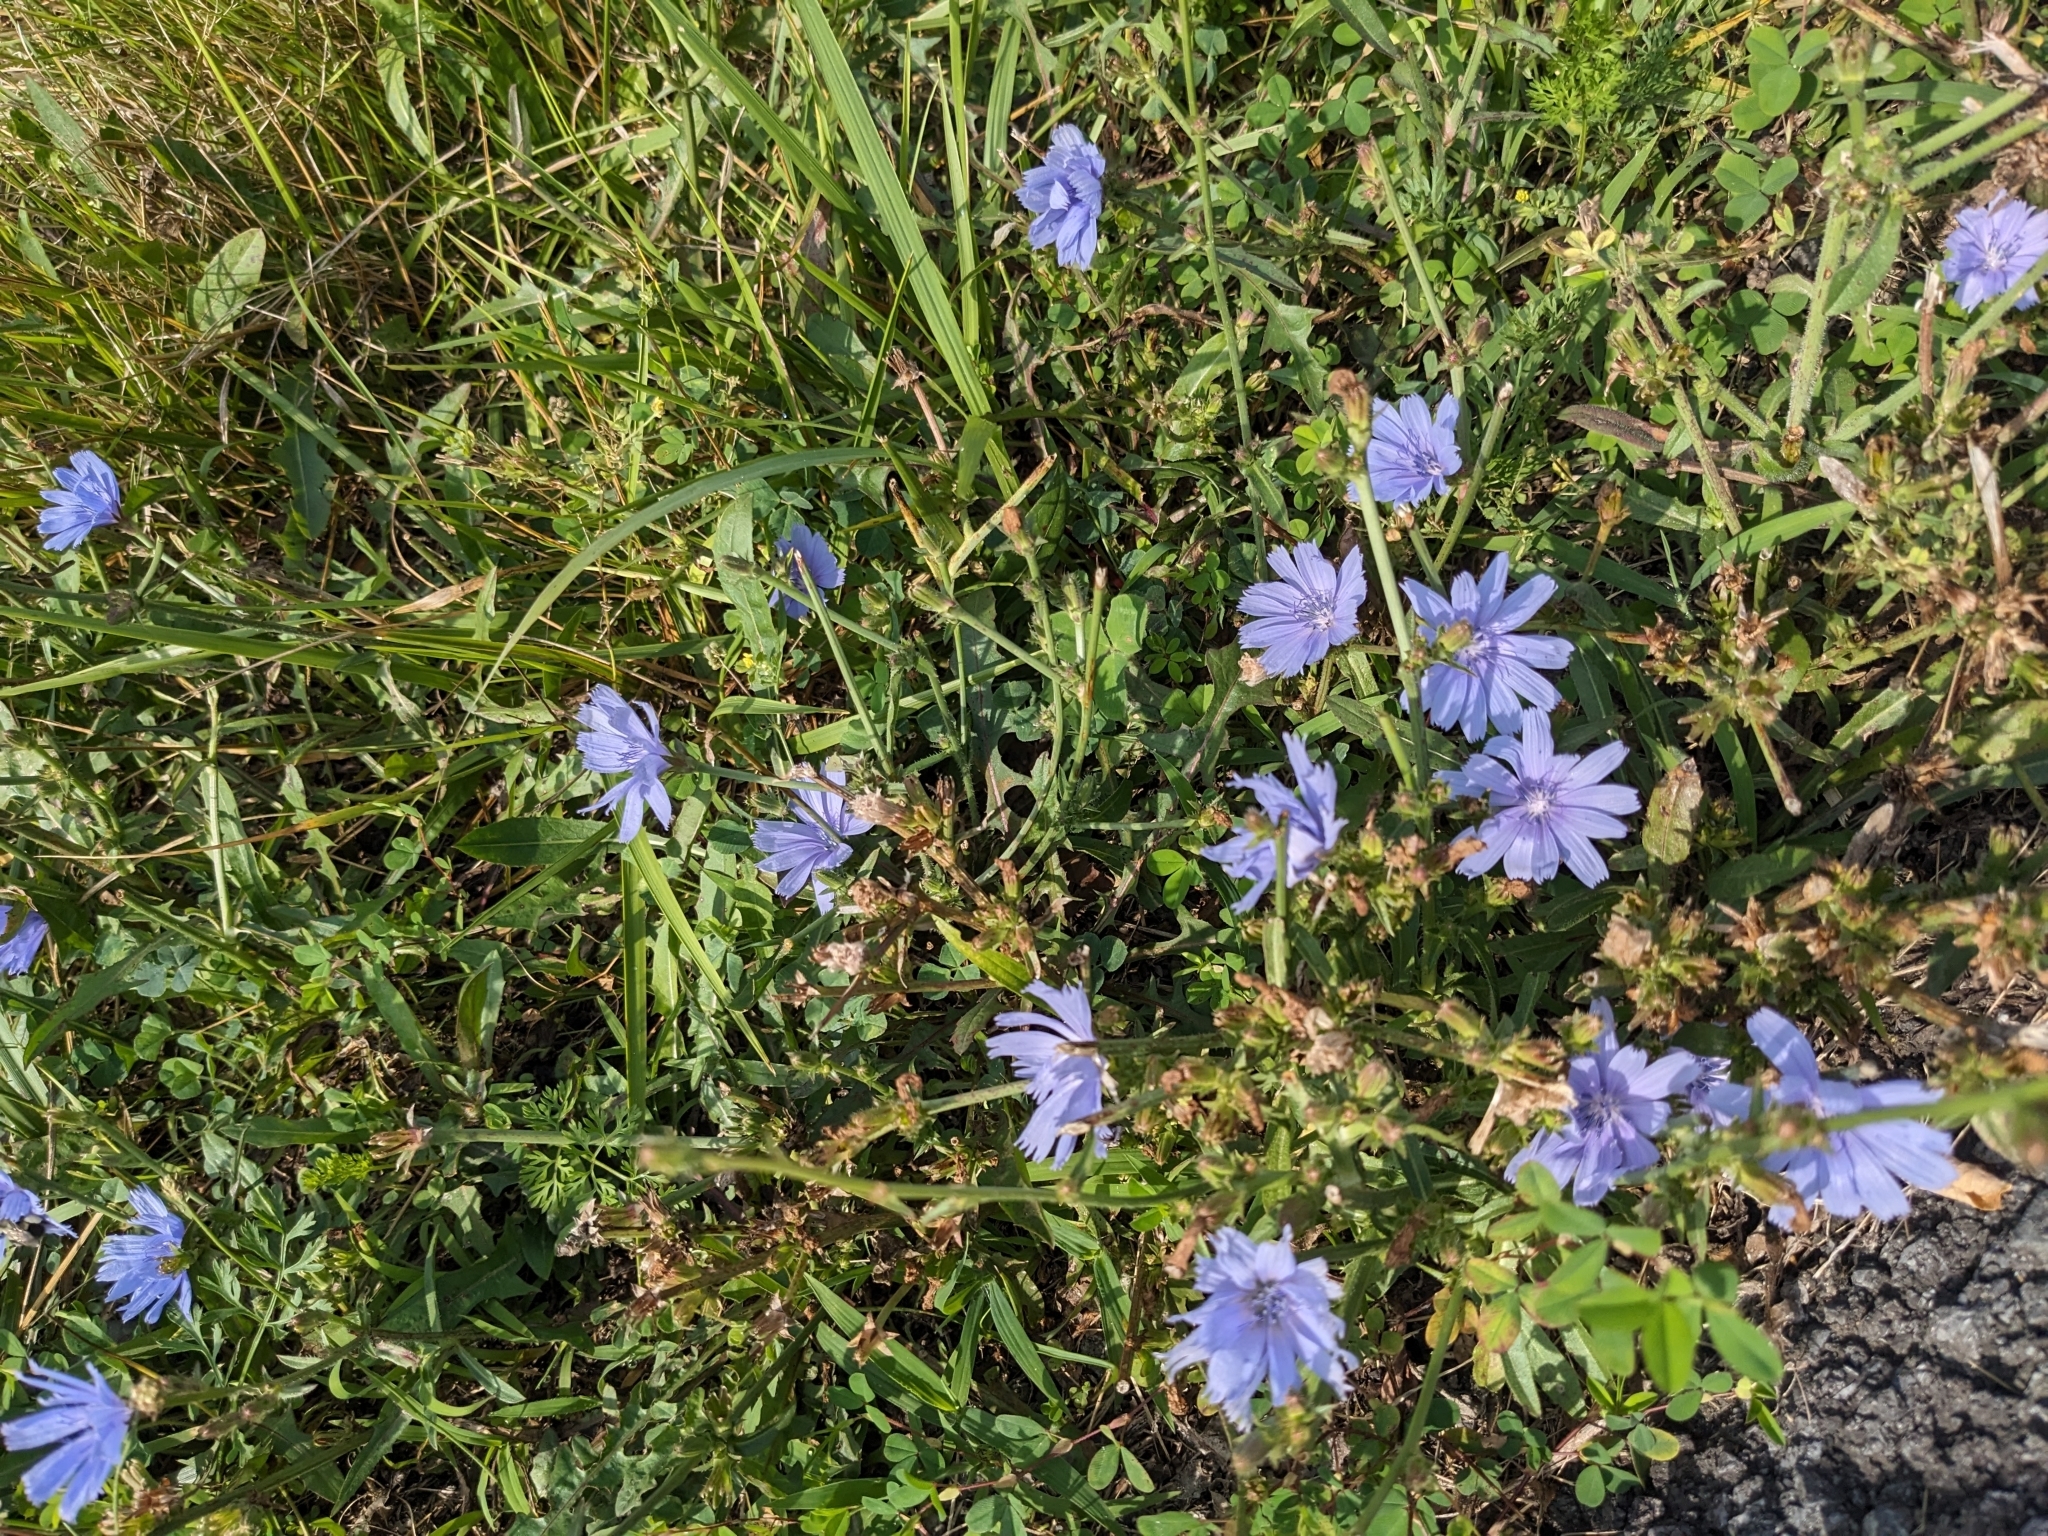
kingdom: Plantae
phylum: Tracheophyta
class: Magnoliopsida
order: Asterales
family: Asteraceae
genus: Cichorium
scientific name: Cichorium intybus
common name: Chicory
